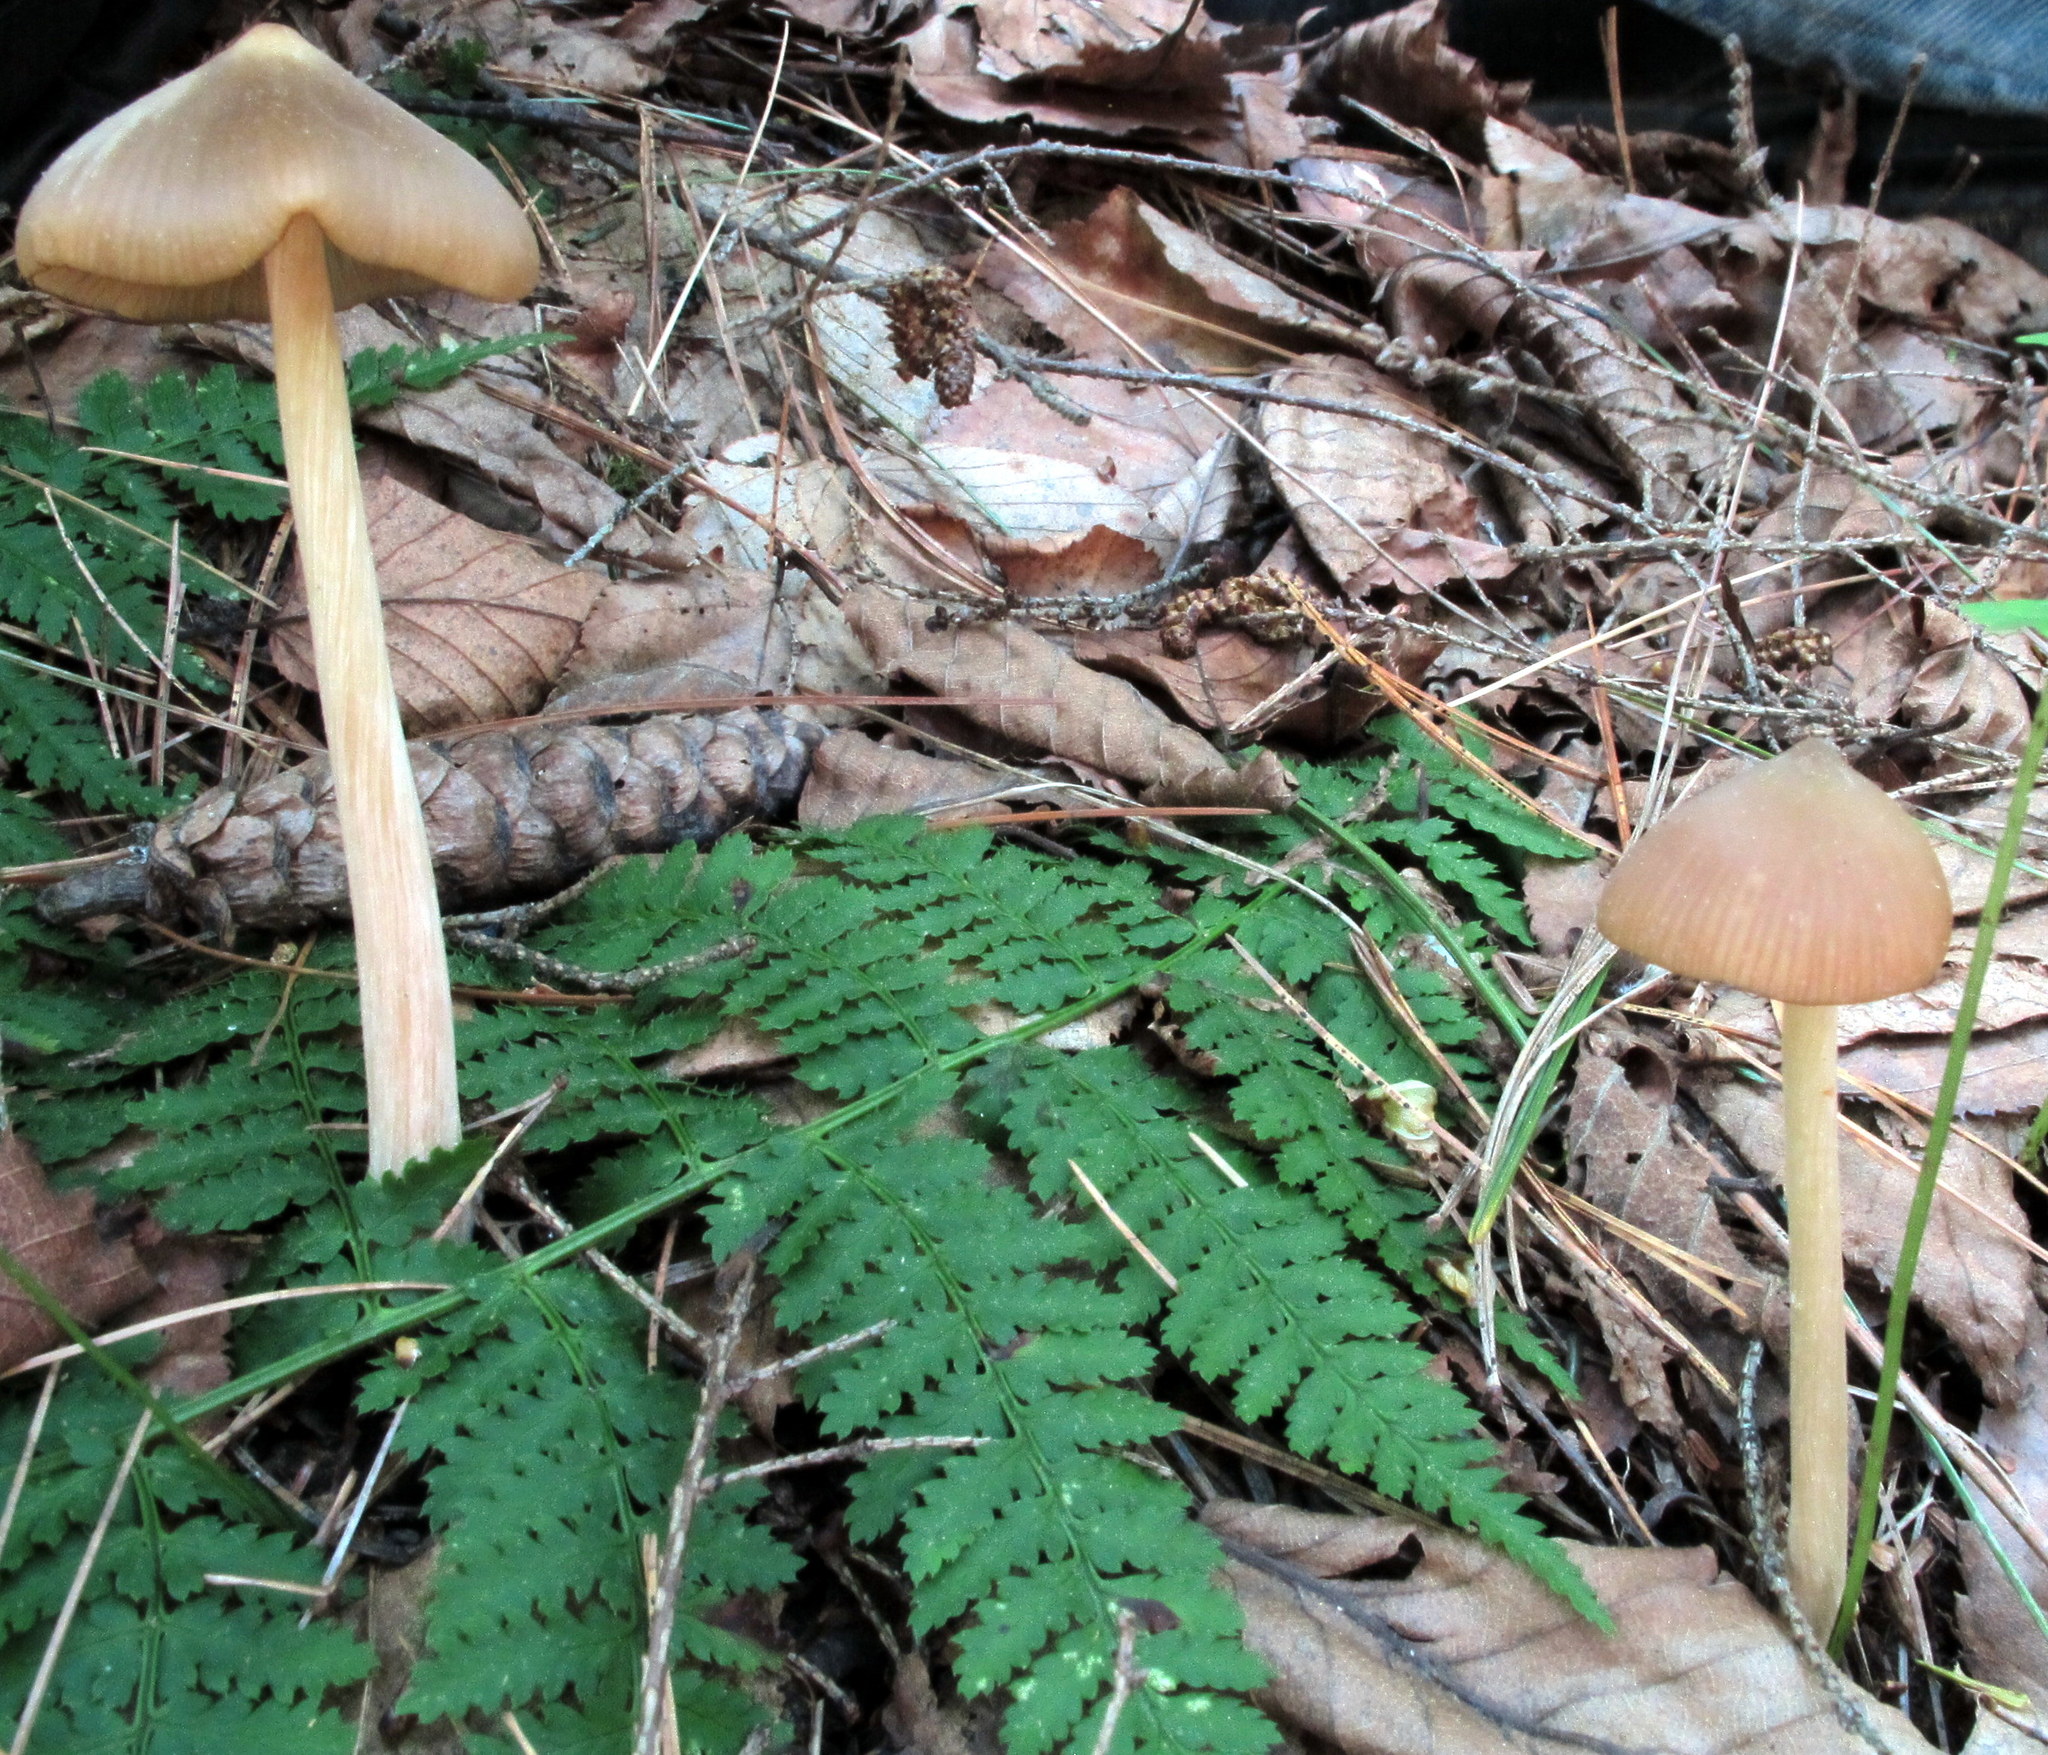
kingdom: Fungi
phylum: Basidiomycota
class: Agaricomycetes
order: Agaricales
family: Entolomataceae
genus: Entoloma
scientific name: Entoloma strictius
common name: Straight-stalked entoloma
